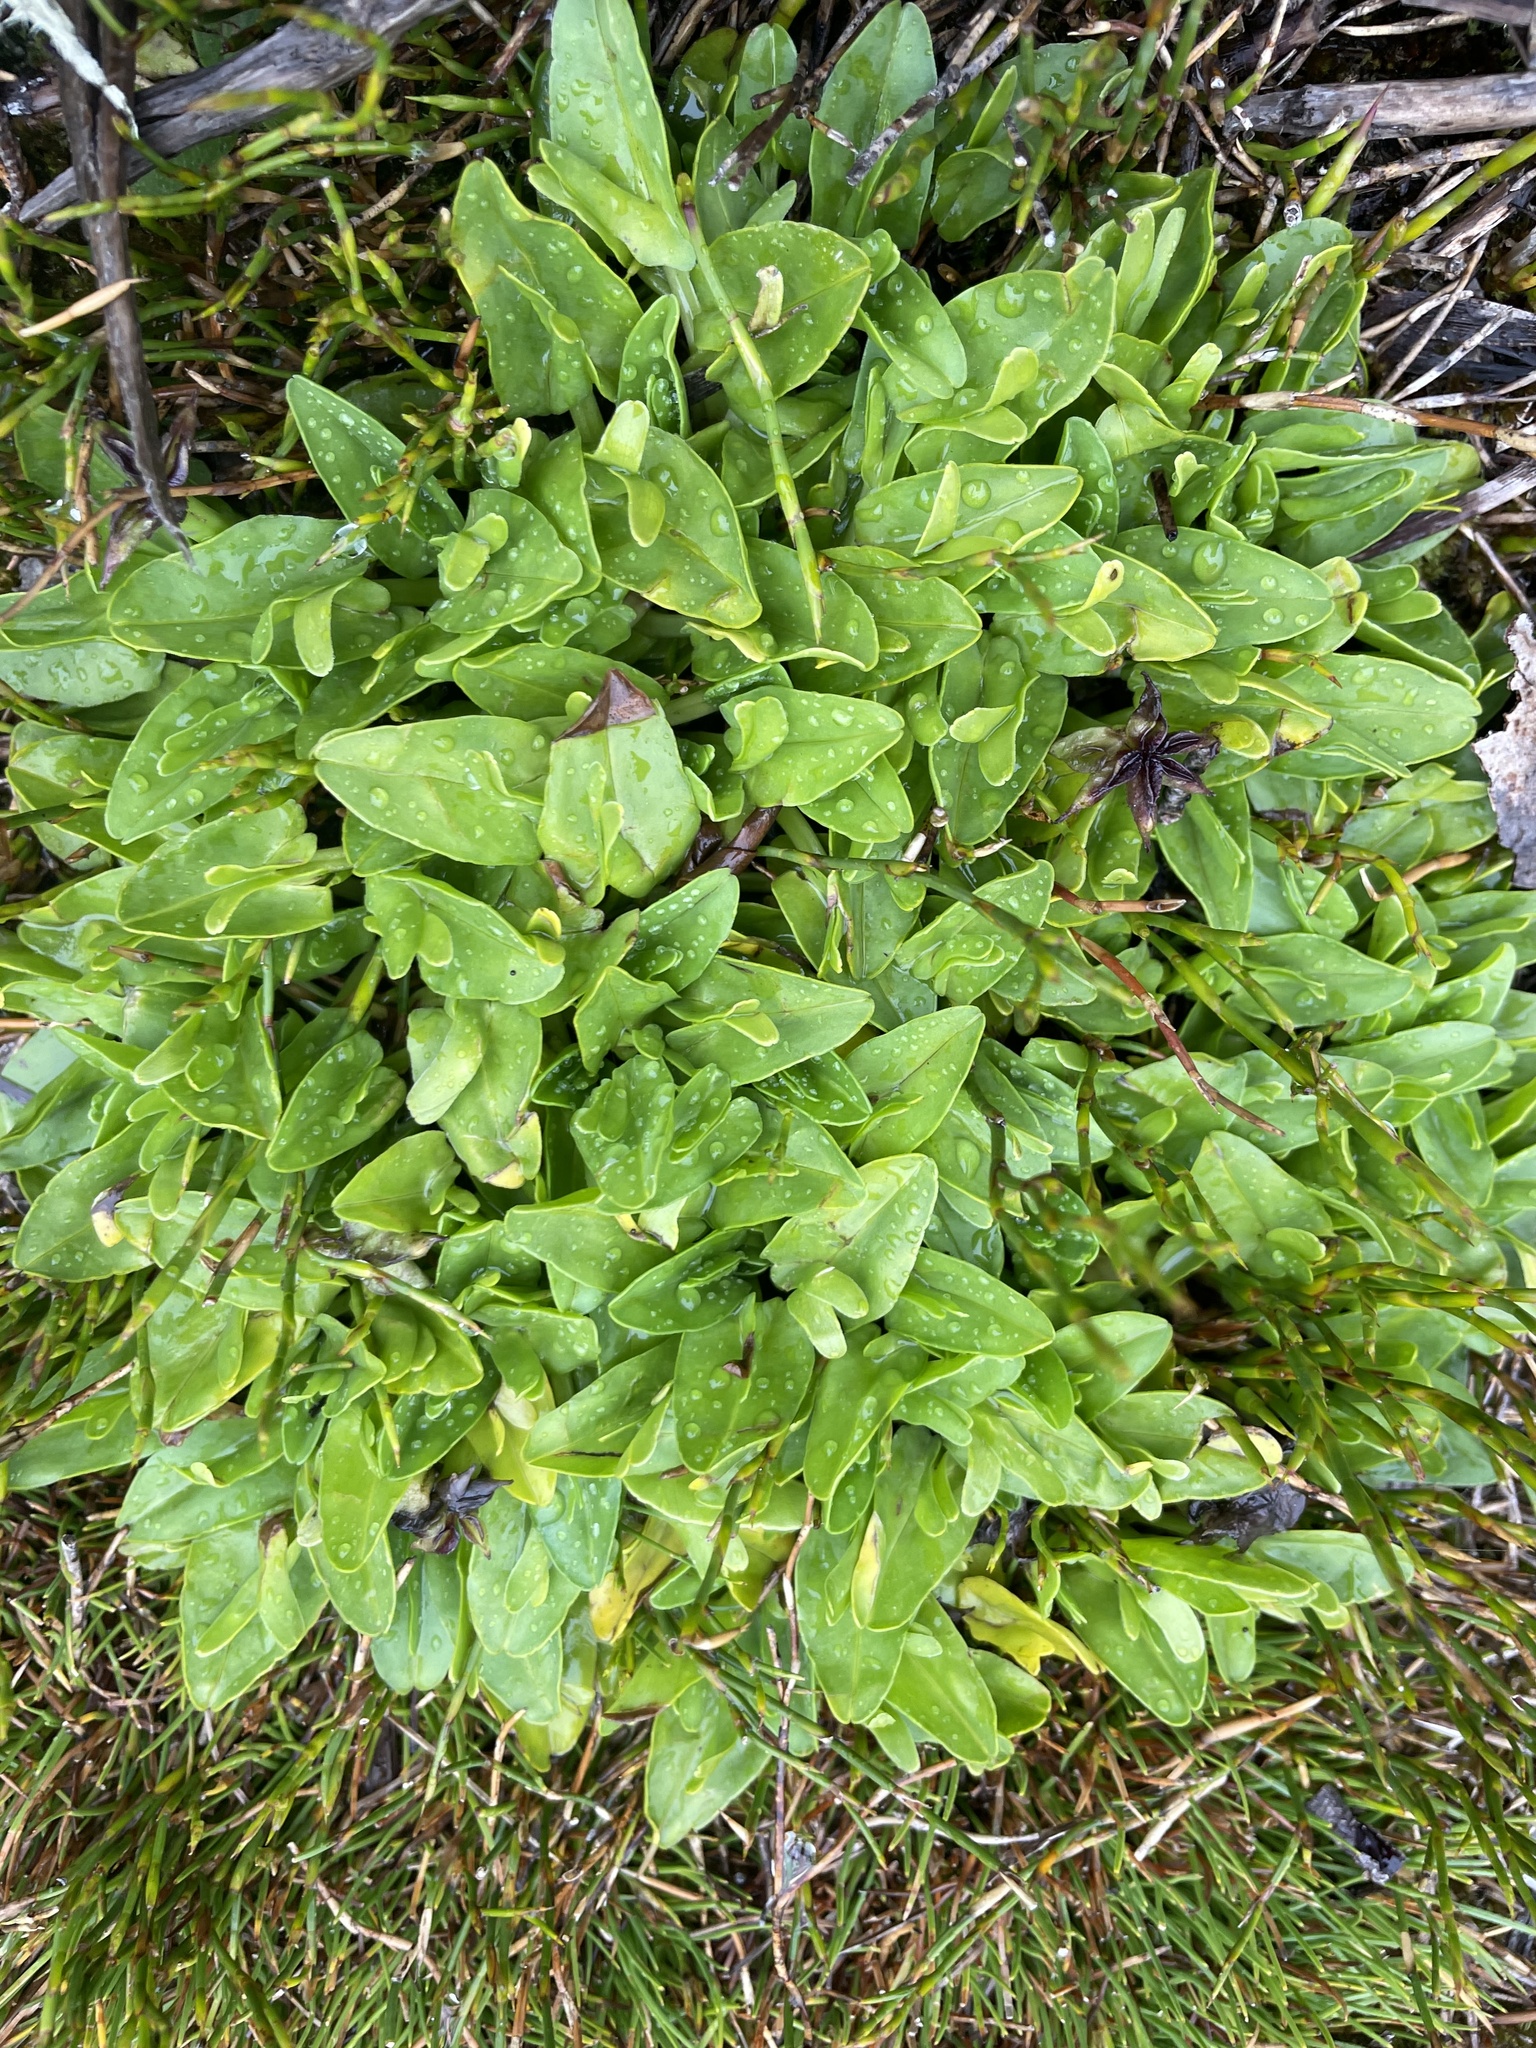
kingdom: Plantae
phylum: Tracheophyta
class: Magnoliopsida
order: Ranunculales
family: Ranunculaceae
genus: Caltha
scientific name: Caltha introloba
